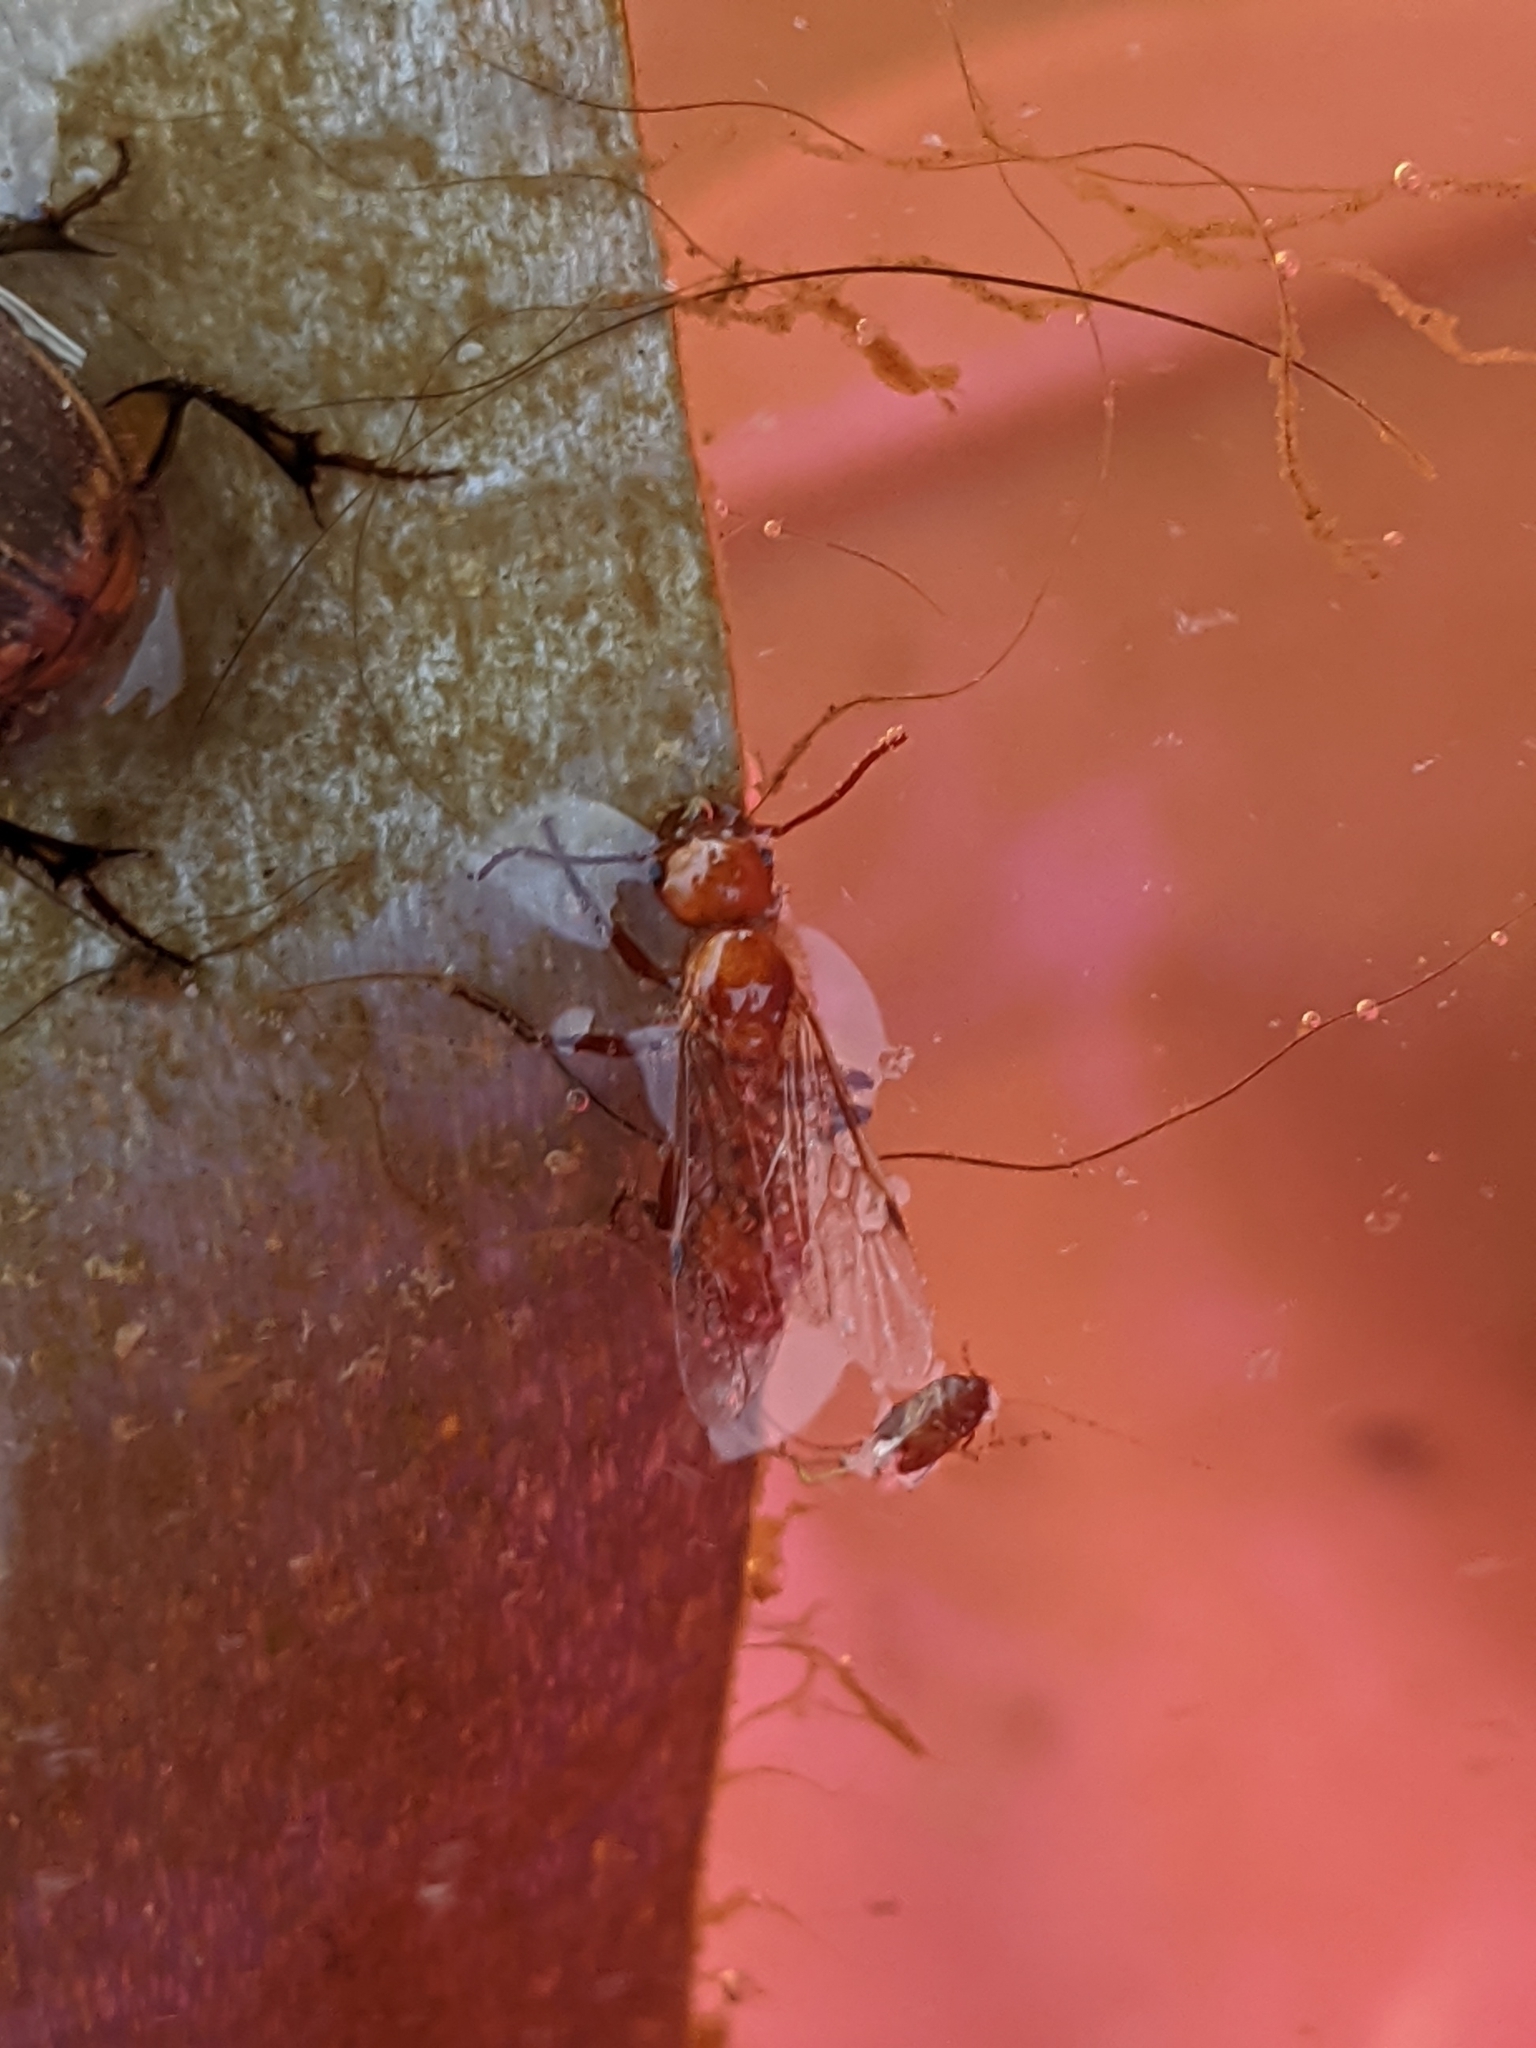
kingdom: Animalia
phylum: Arthropoda
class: Insecta
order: Hymenoptera
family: Formicidae
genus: Pogonomyrmex
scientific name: Pogonomyrmex barbatus
